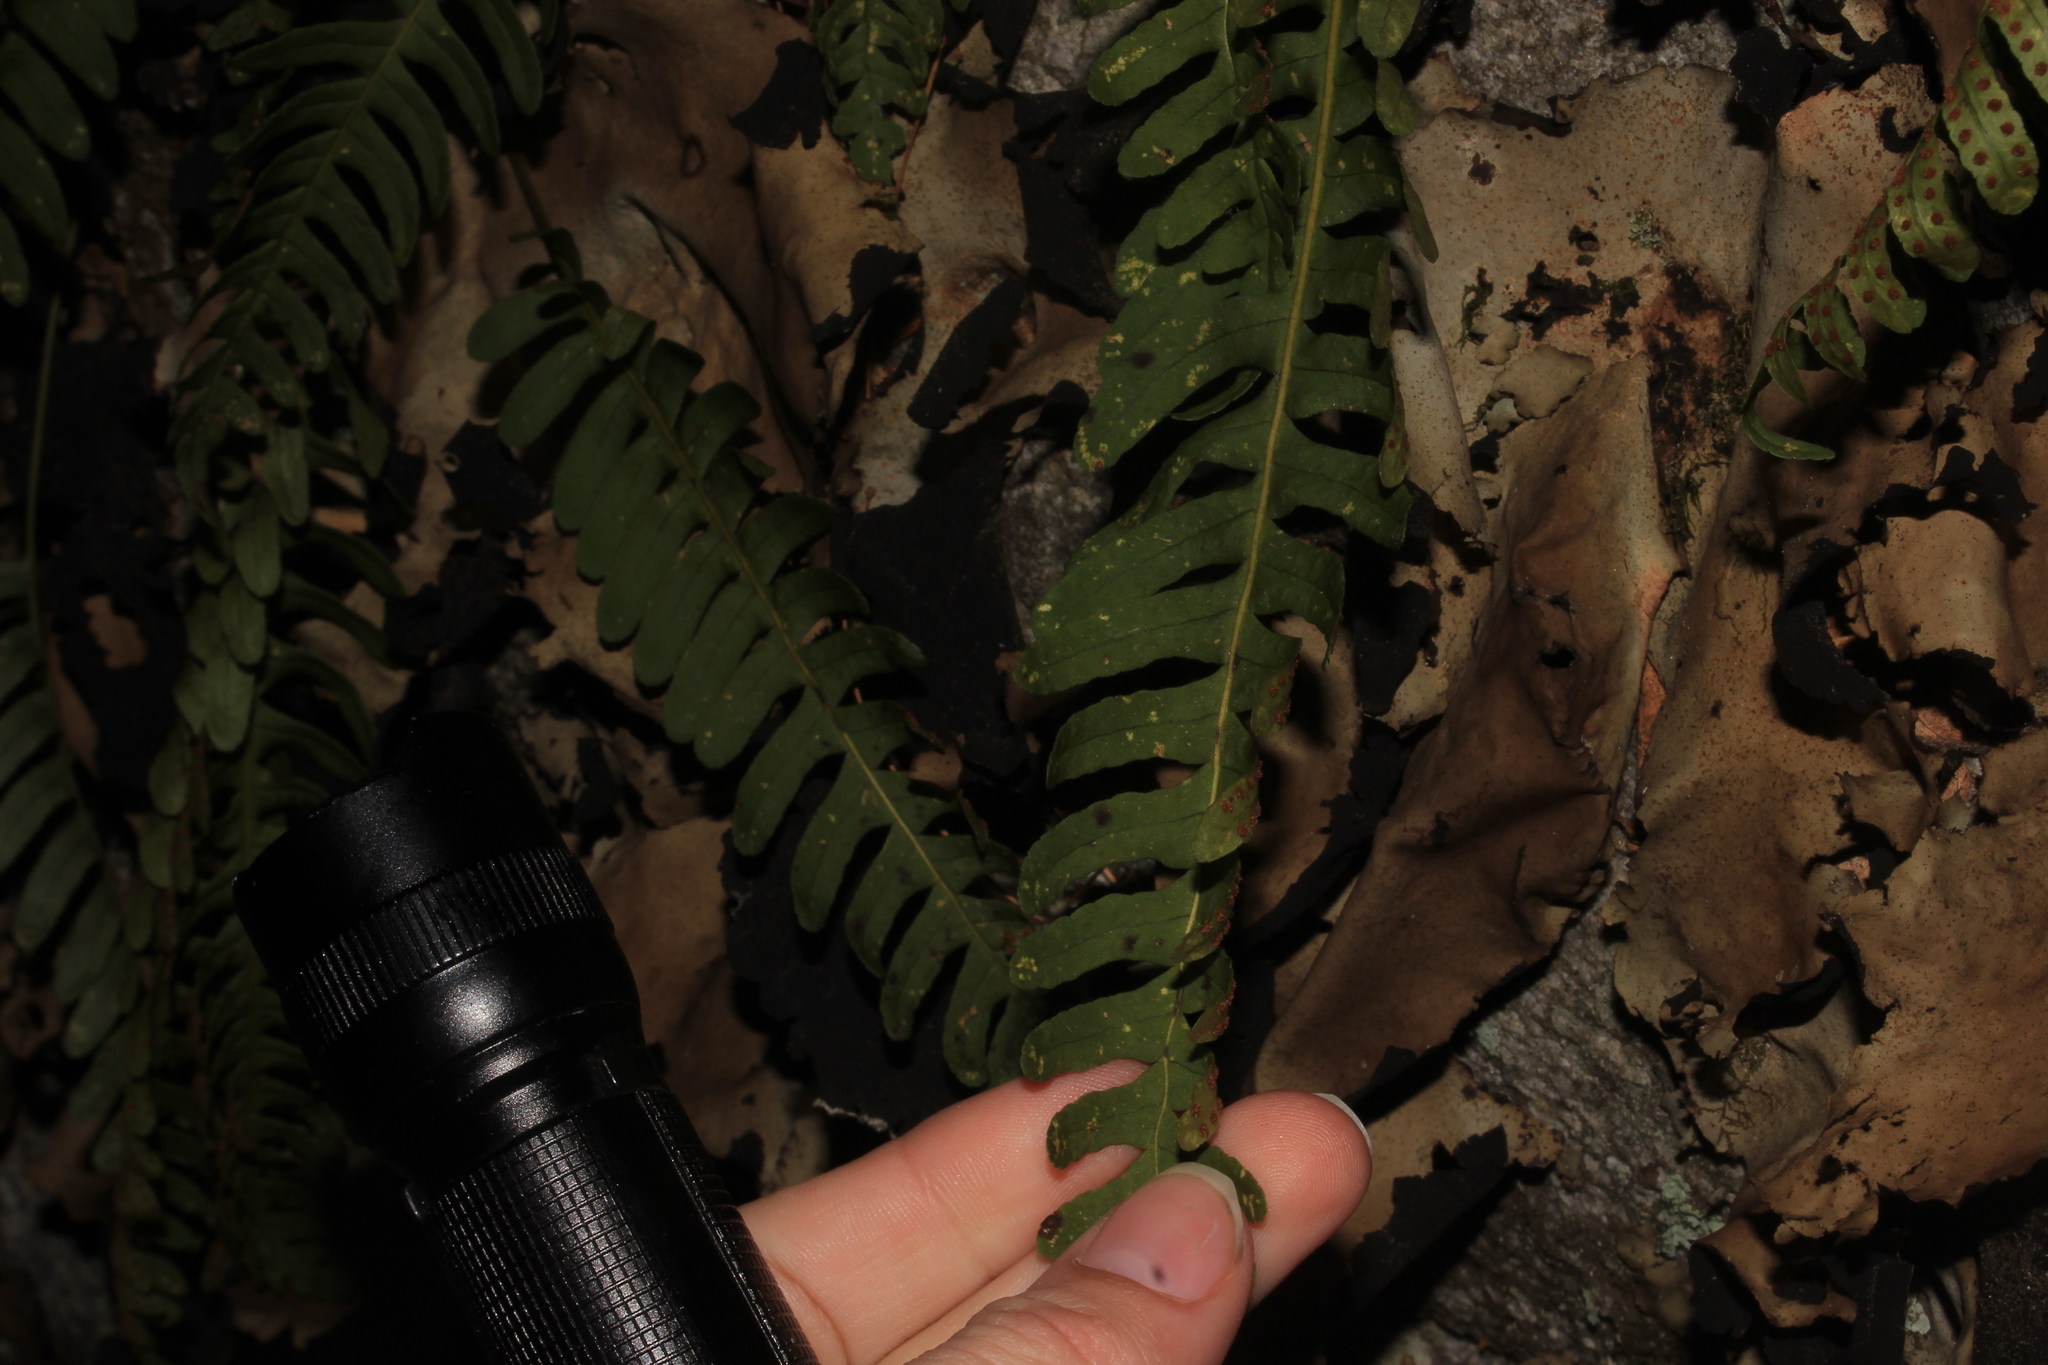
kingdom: Plantae
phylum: Tracheophyta
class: Polypodiopsida
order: Polypodiales
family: Polypodiaceae
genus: Polypodium
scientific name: Polypodium virginianum
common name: American wall fern
